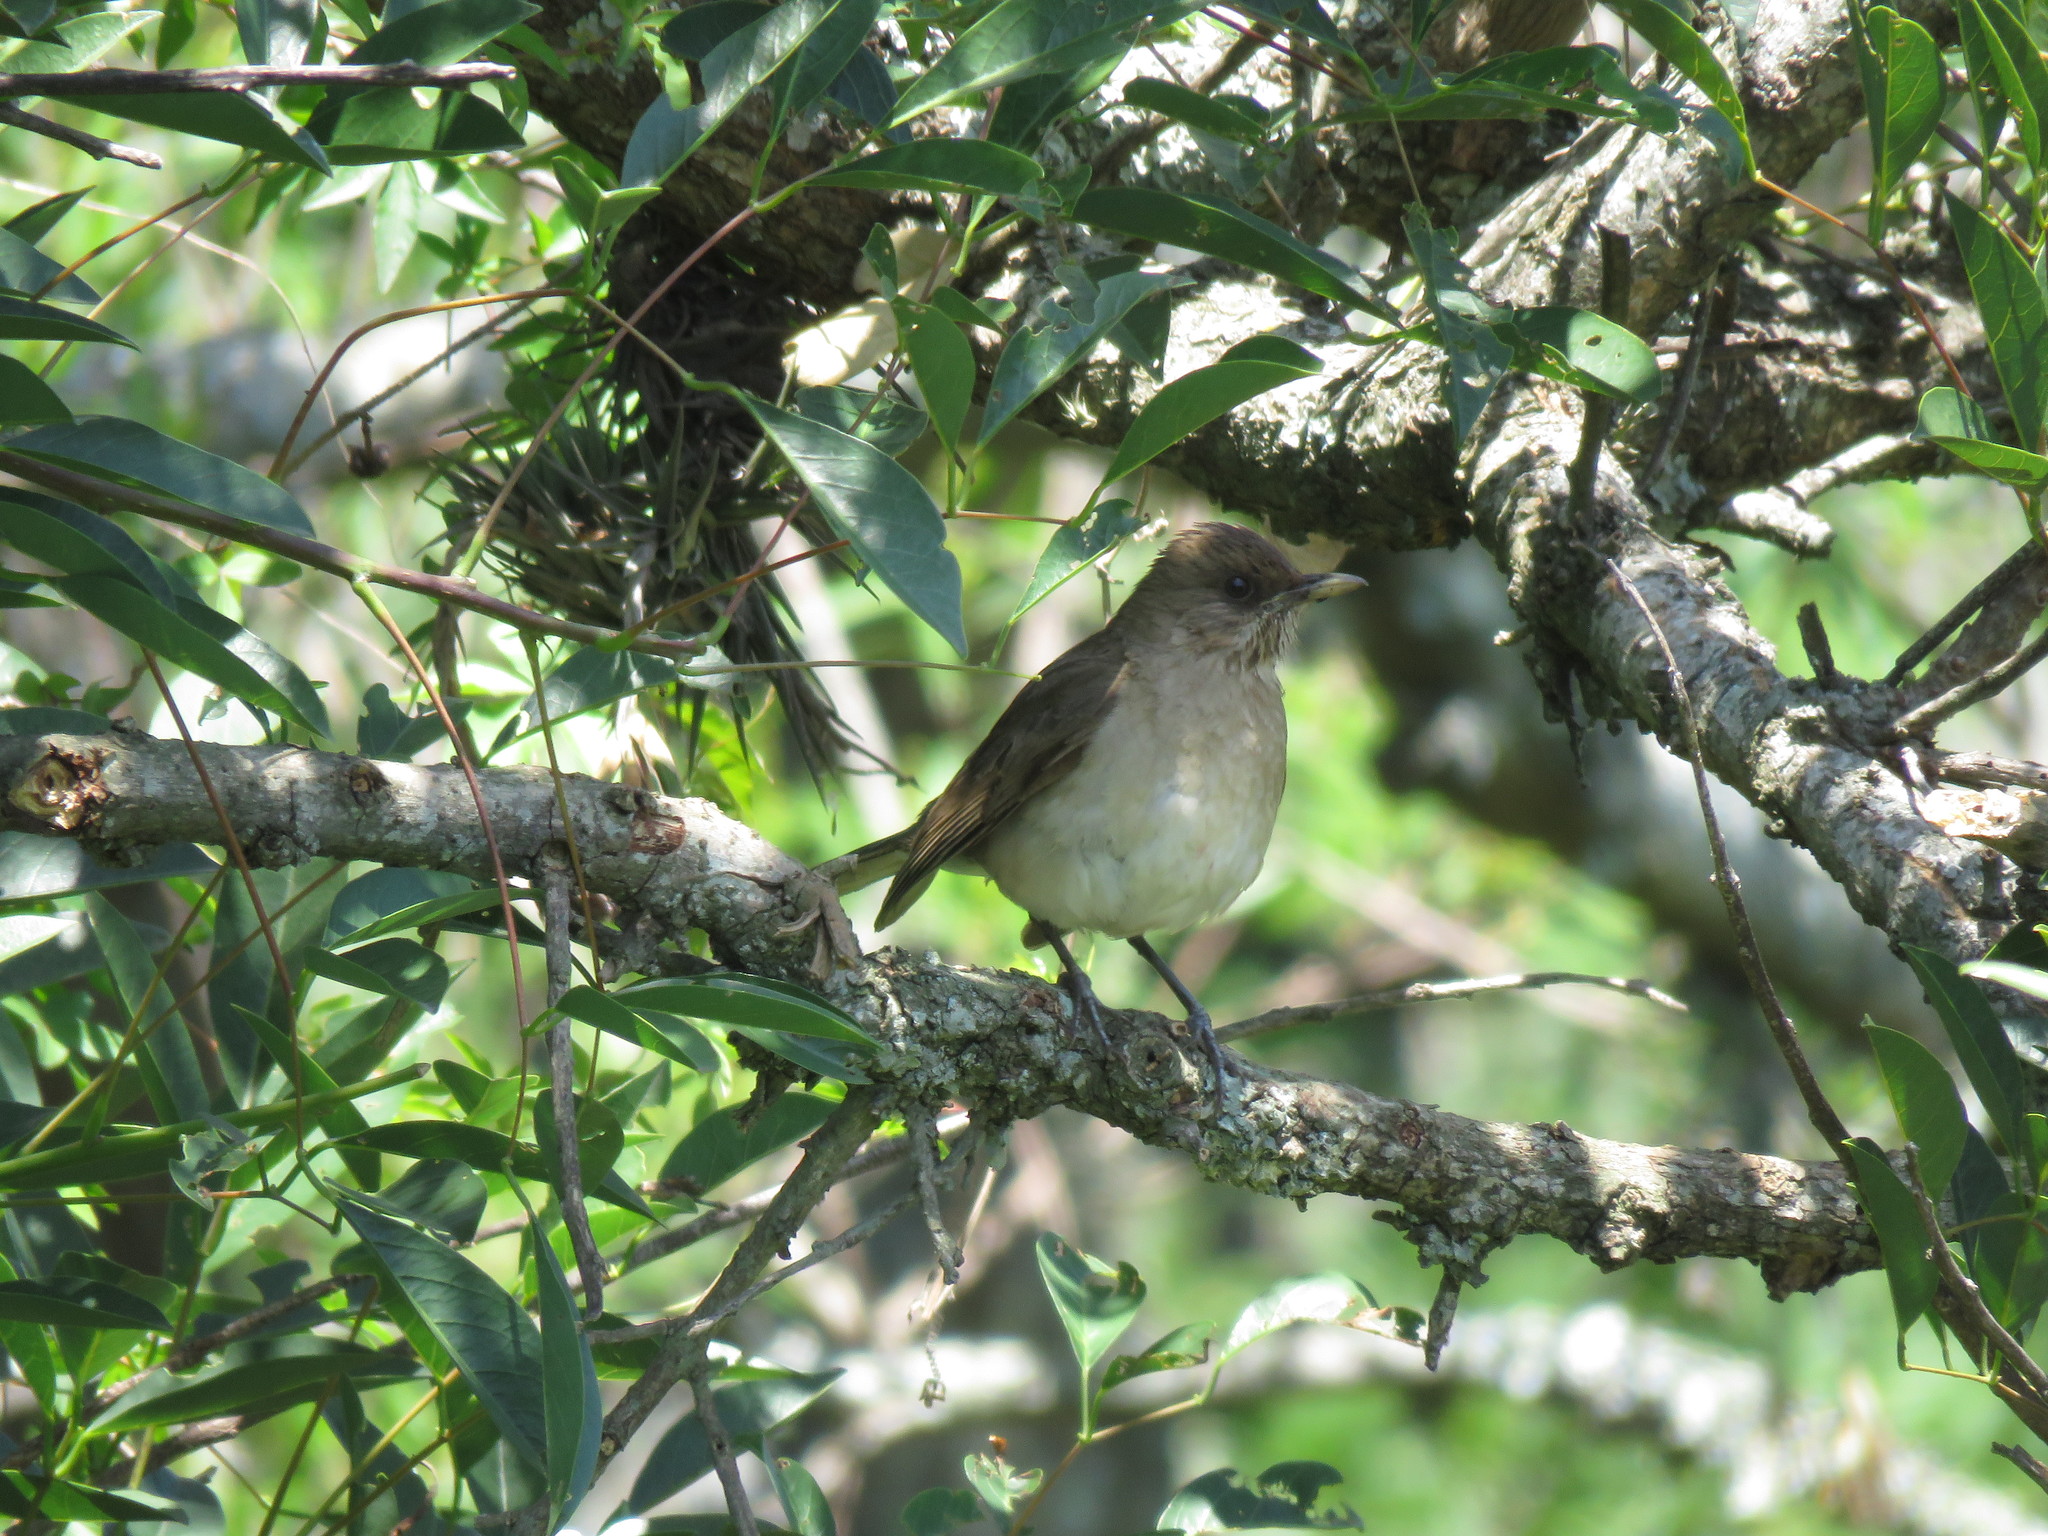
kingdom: Animalia
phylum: Chordata
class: Aves
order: Passeriformes
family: Turdidae
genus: Turdus
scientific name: Turdus amaurochalinus
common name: Creamy-bellied thrush
